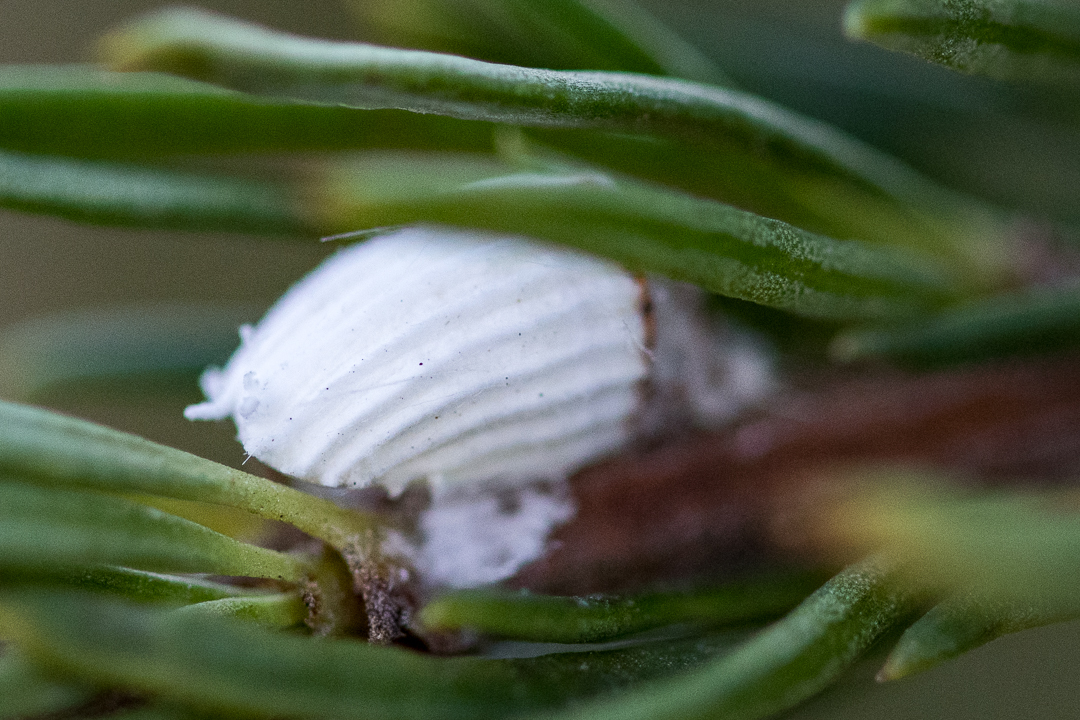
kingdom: Animalia
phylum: Arthropoda
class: Insecta
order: Hemiptera
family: Margarodidae
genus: Icerya
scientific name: Icerya purchasi
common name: Cottony cushion scale
